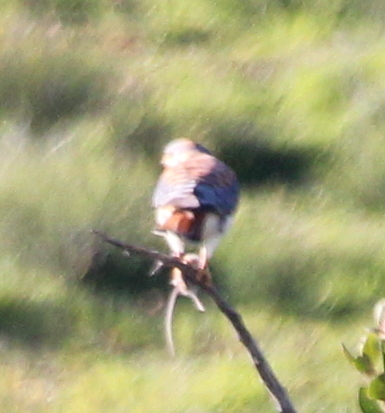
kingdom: Animalia
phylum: Chordata
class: Aves
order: Falconiformes
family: Falconidae
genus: Falco
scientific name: Falco sparverius
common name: American kestrel
